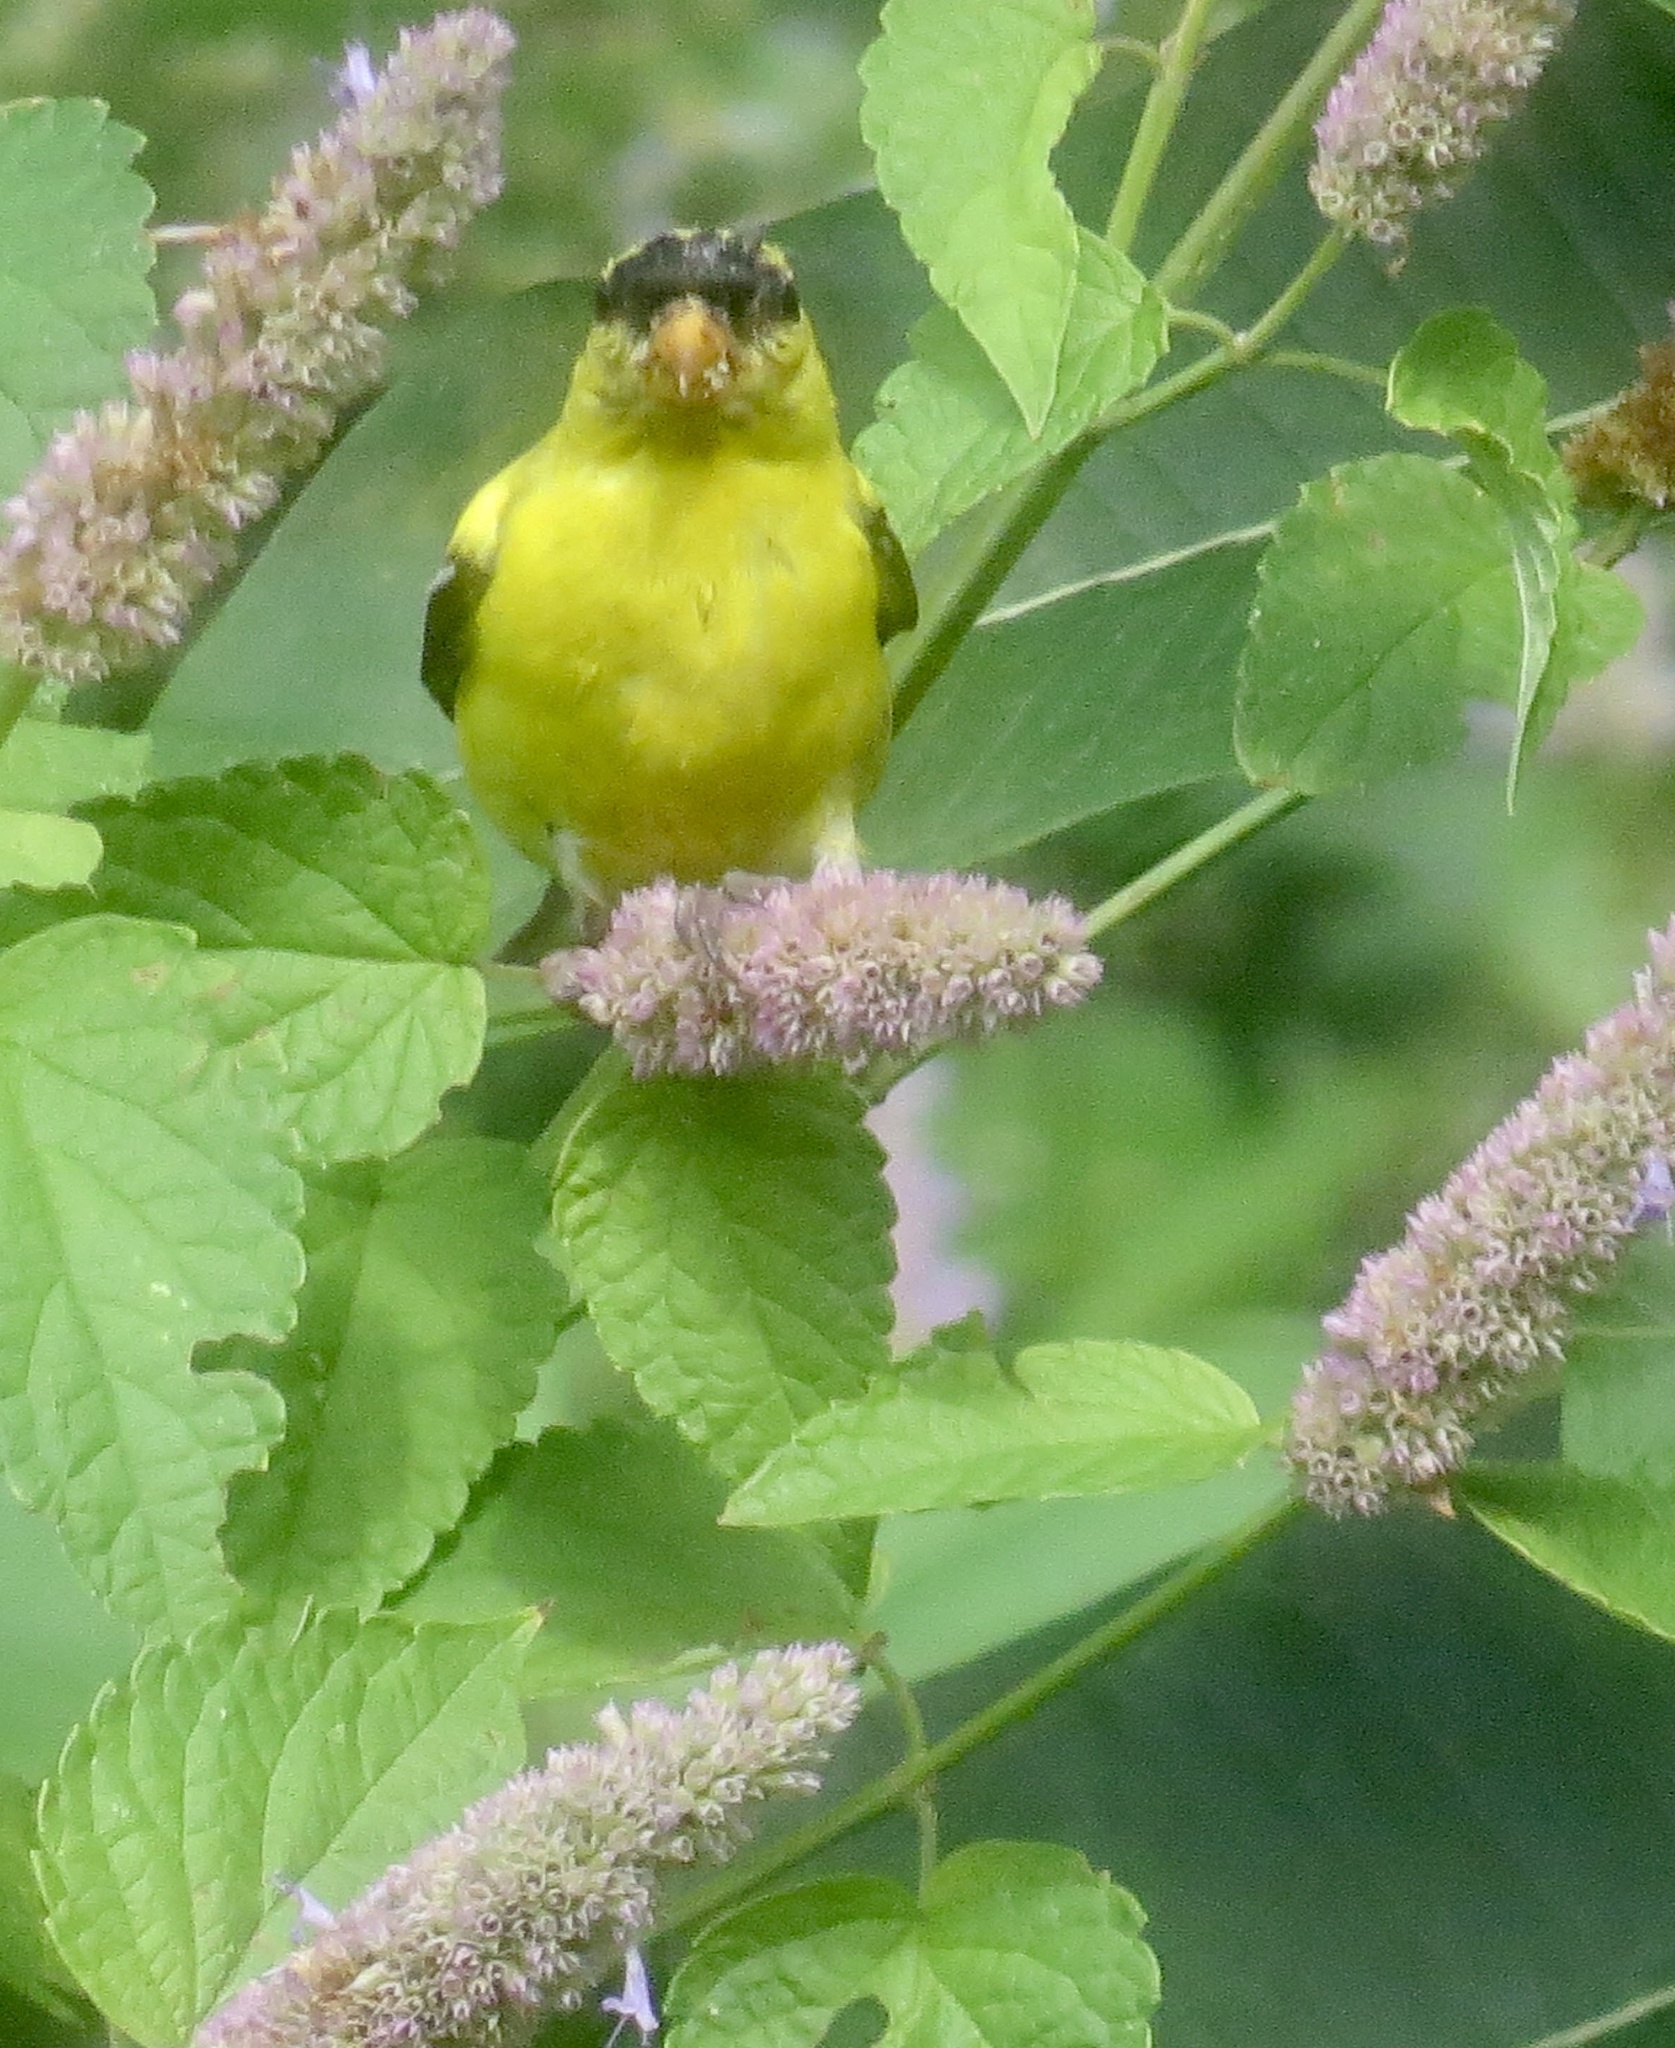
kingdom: Animalia
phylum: Chordata
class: Aves
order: Passeriformes
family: Fringillidae
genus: Spinus
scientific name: Spinus tristis
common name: American goldfinch
